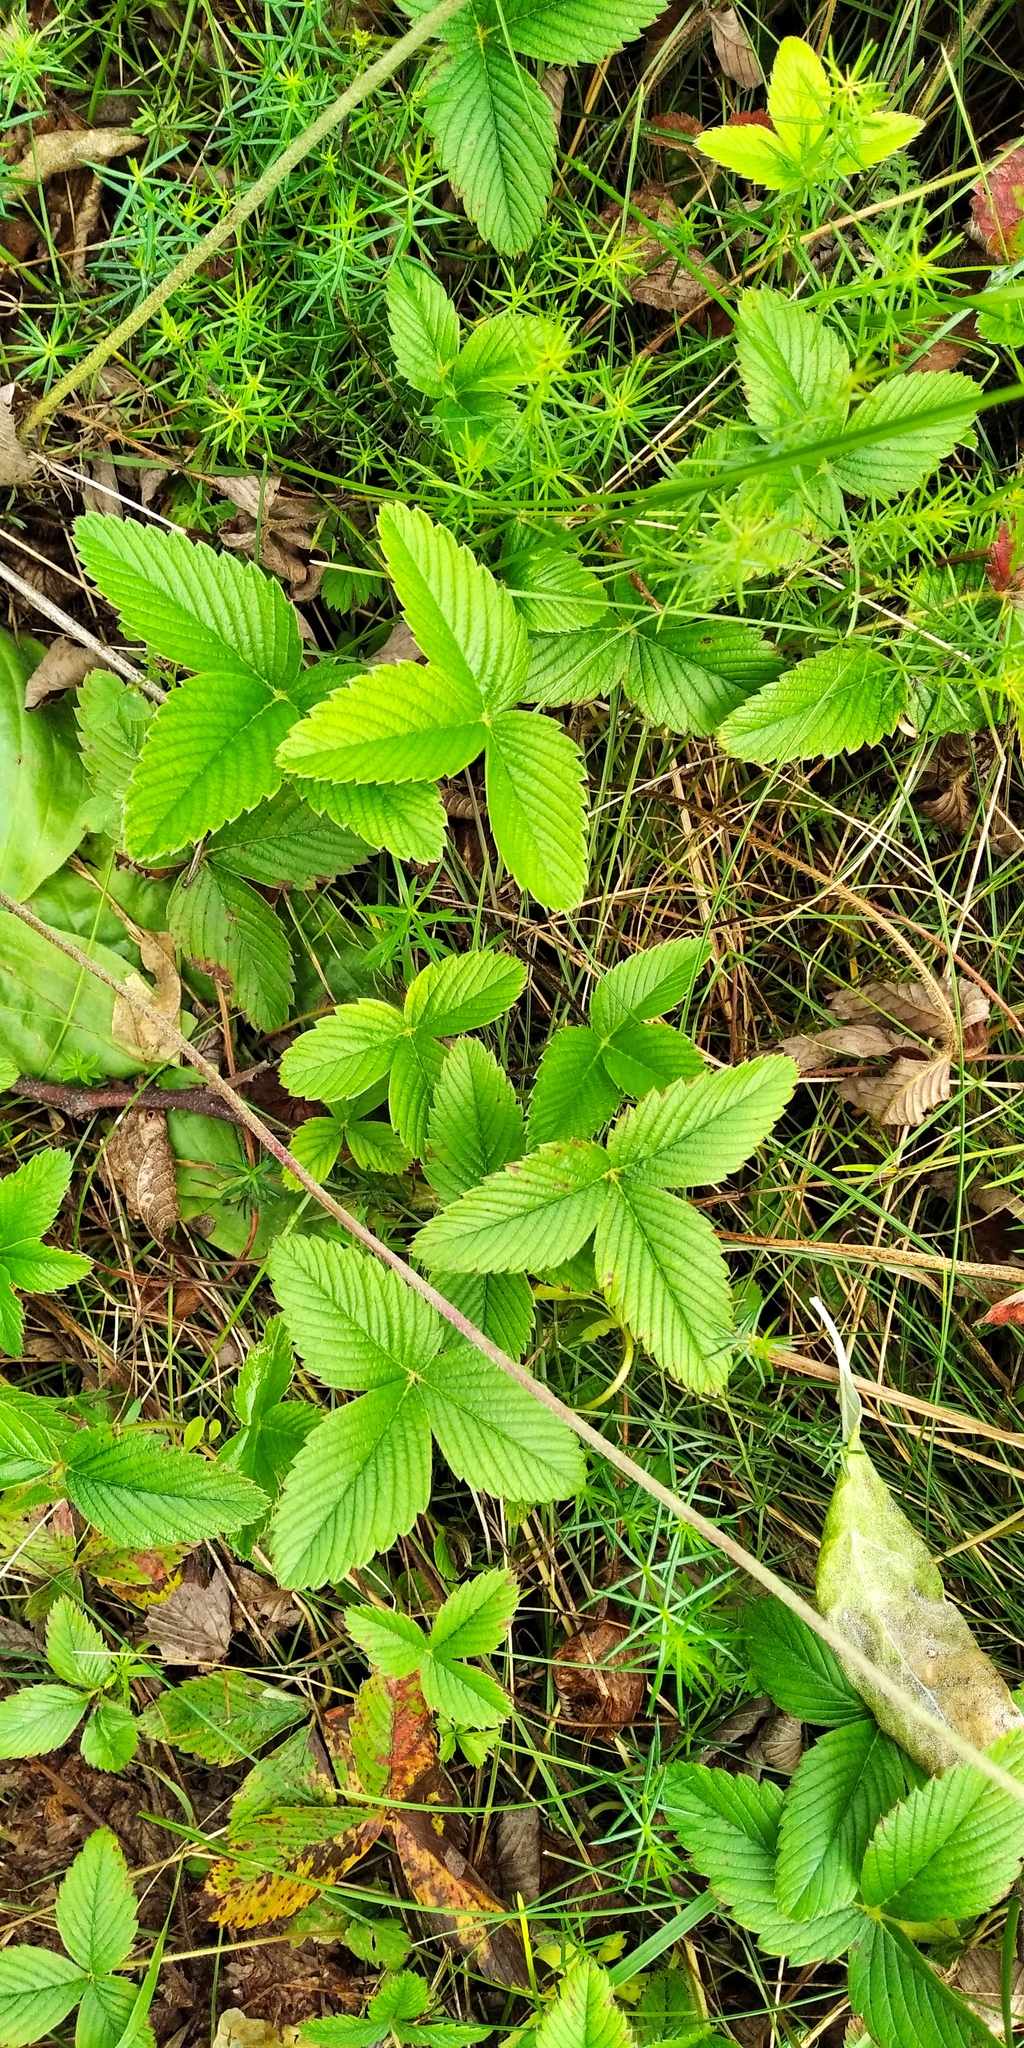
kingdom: Plantae
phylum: Tracheophyta
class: Magnoliopsida
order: Rosales
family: Rosaceae
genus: Fragaria
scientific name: Fragaria viridis
